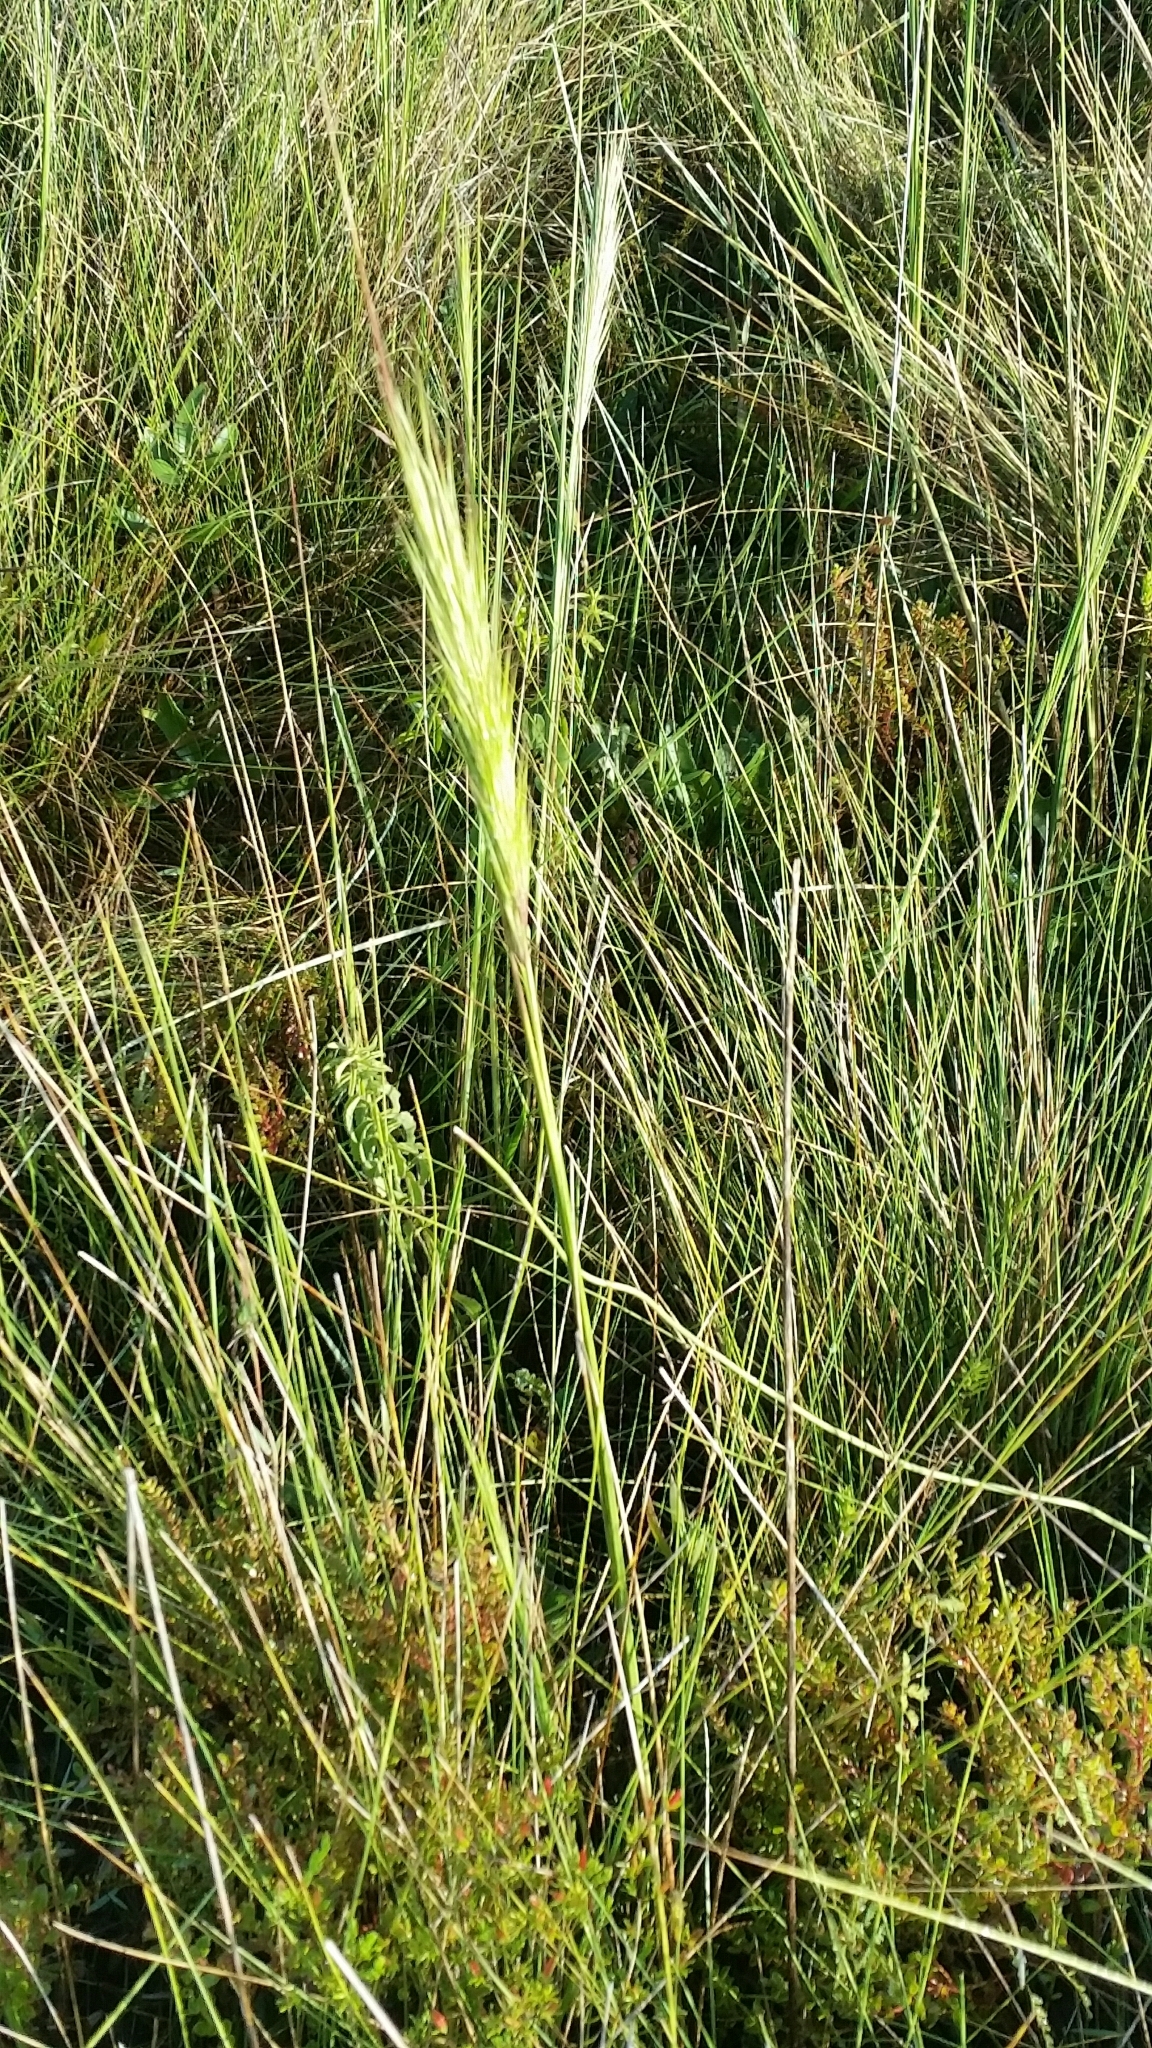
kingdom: Plantae
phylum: Tracheophyta
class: Liliopsida
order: Poales
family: Poaceae
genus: Aristida
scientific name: Aristida spiciformis
